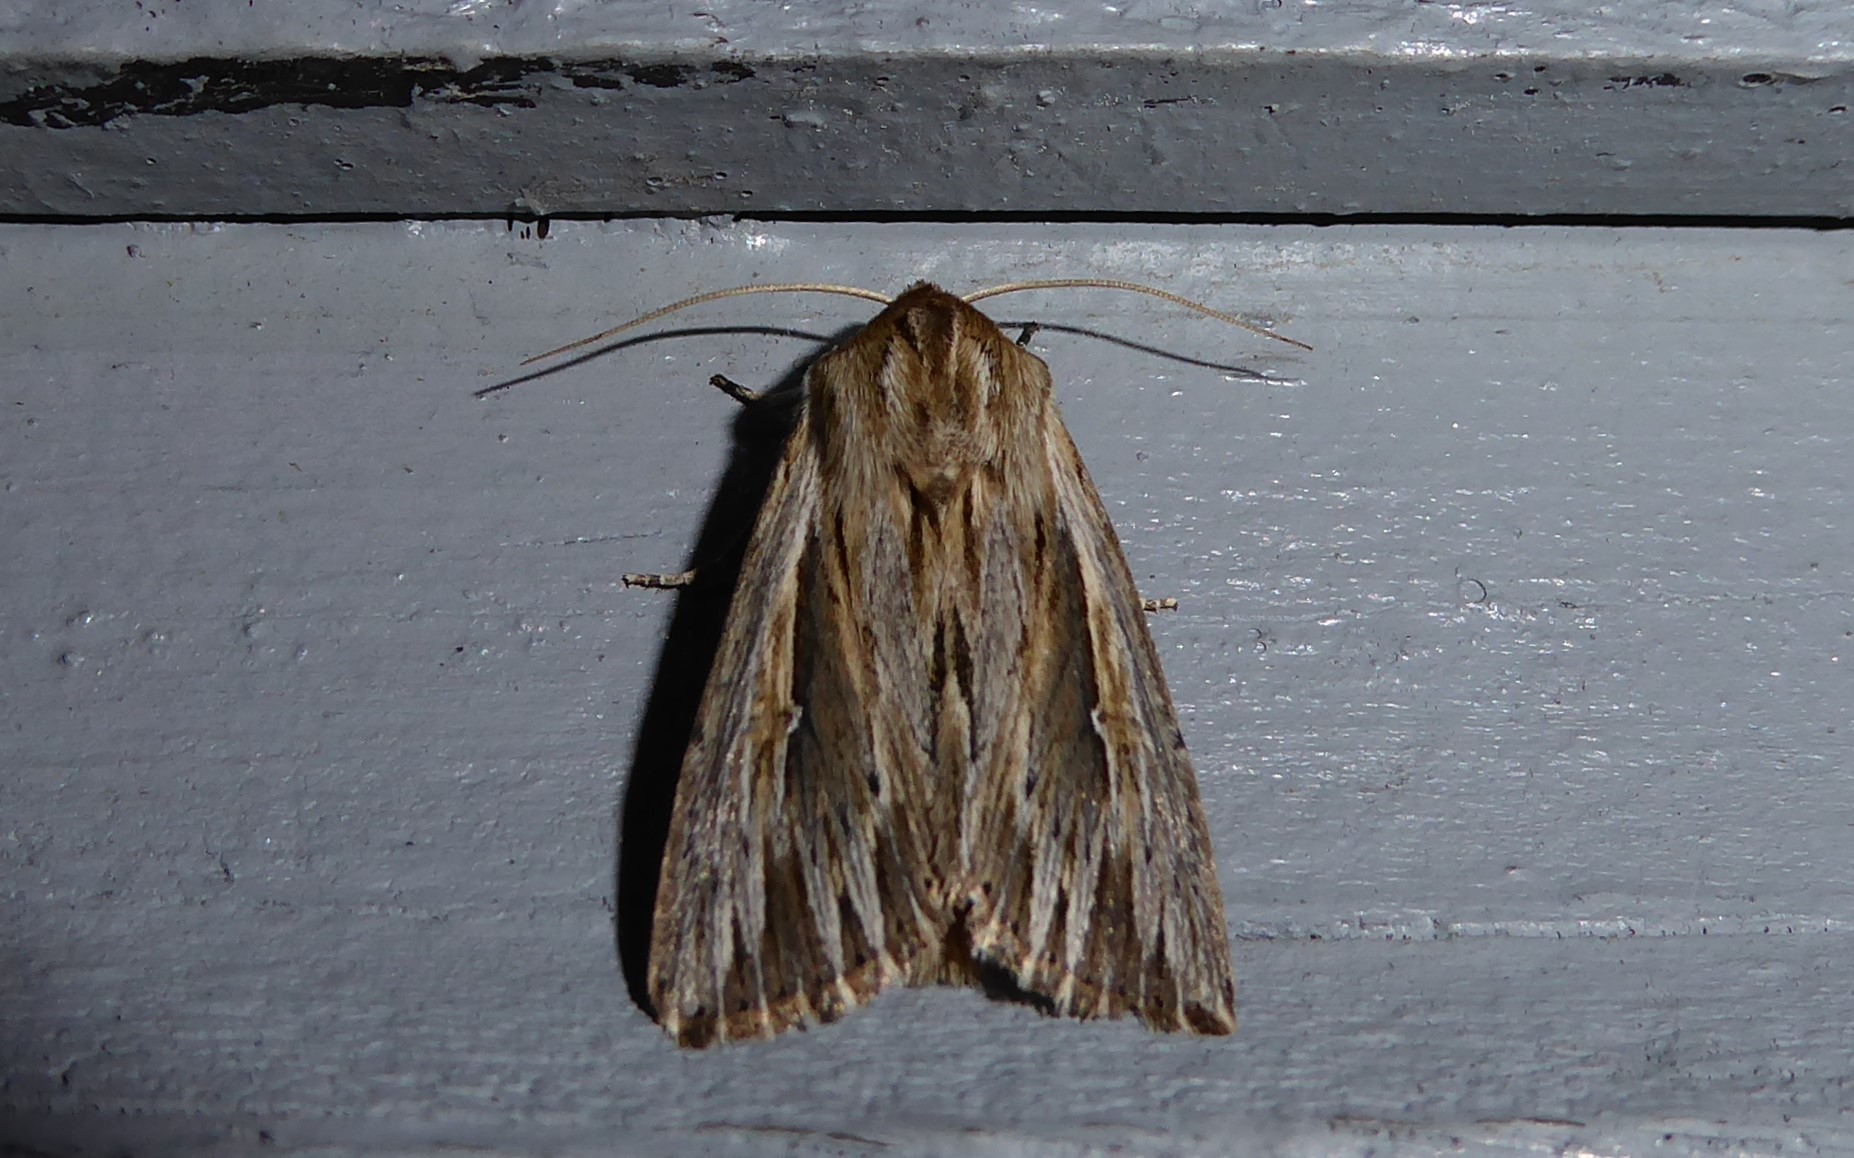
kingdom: Animalia
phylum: Arthropoda
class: Insecta
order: Lepidoptera
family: Noctuidae
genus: Persectania
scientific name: Persectania aversa
